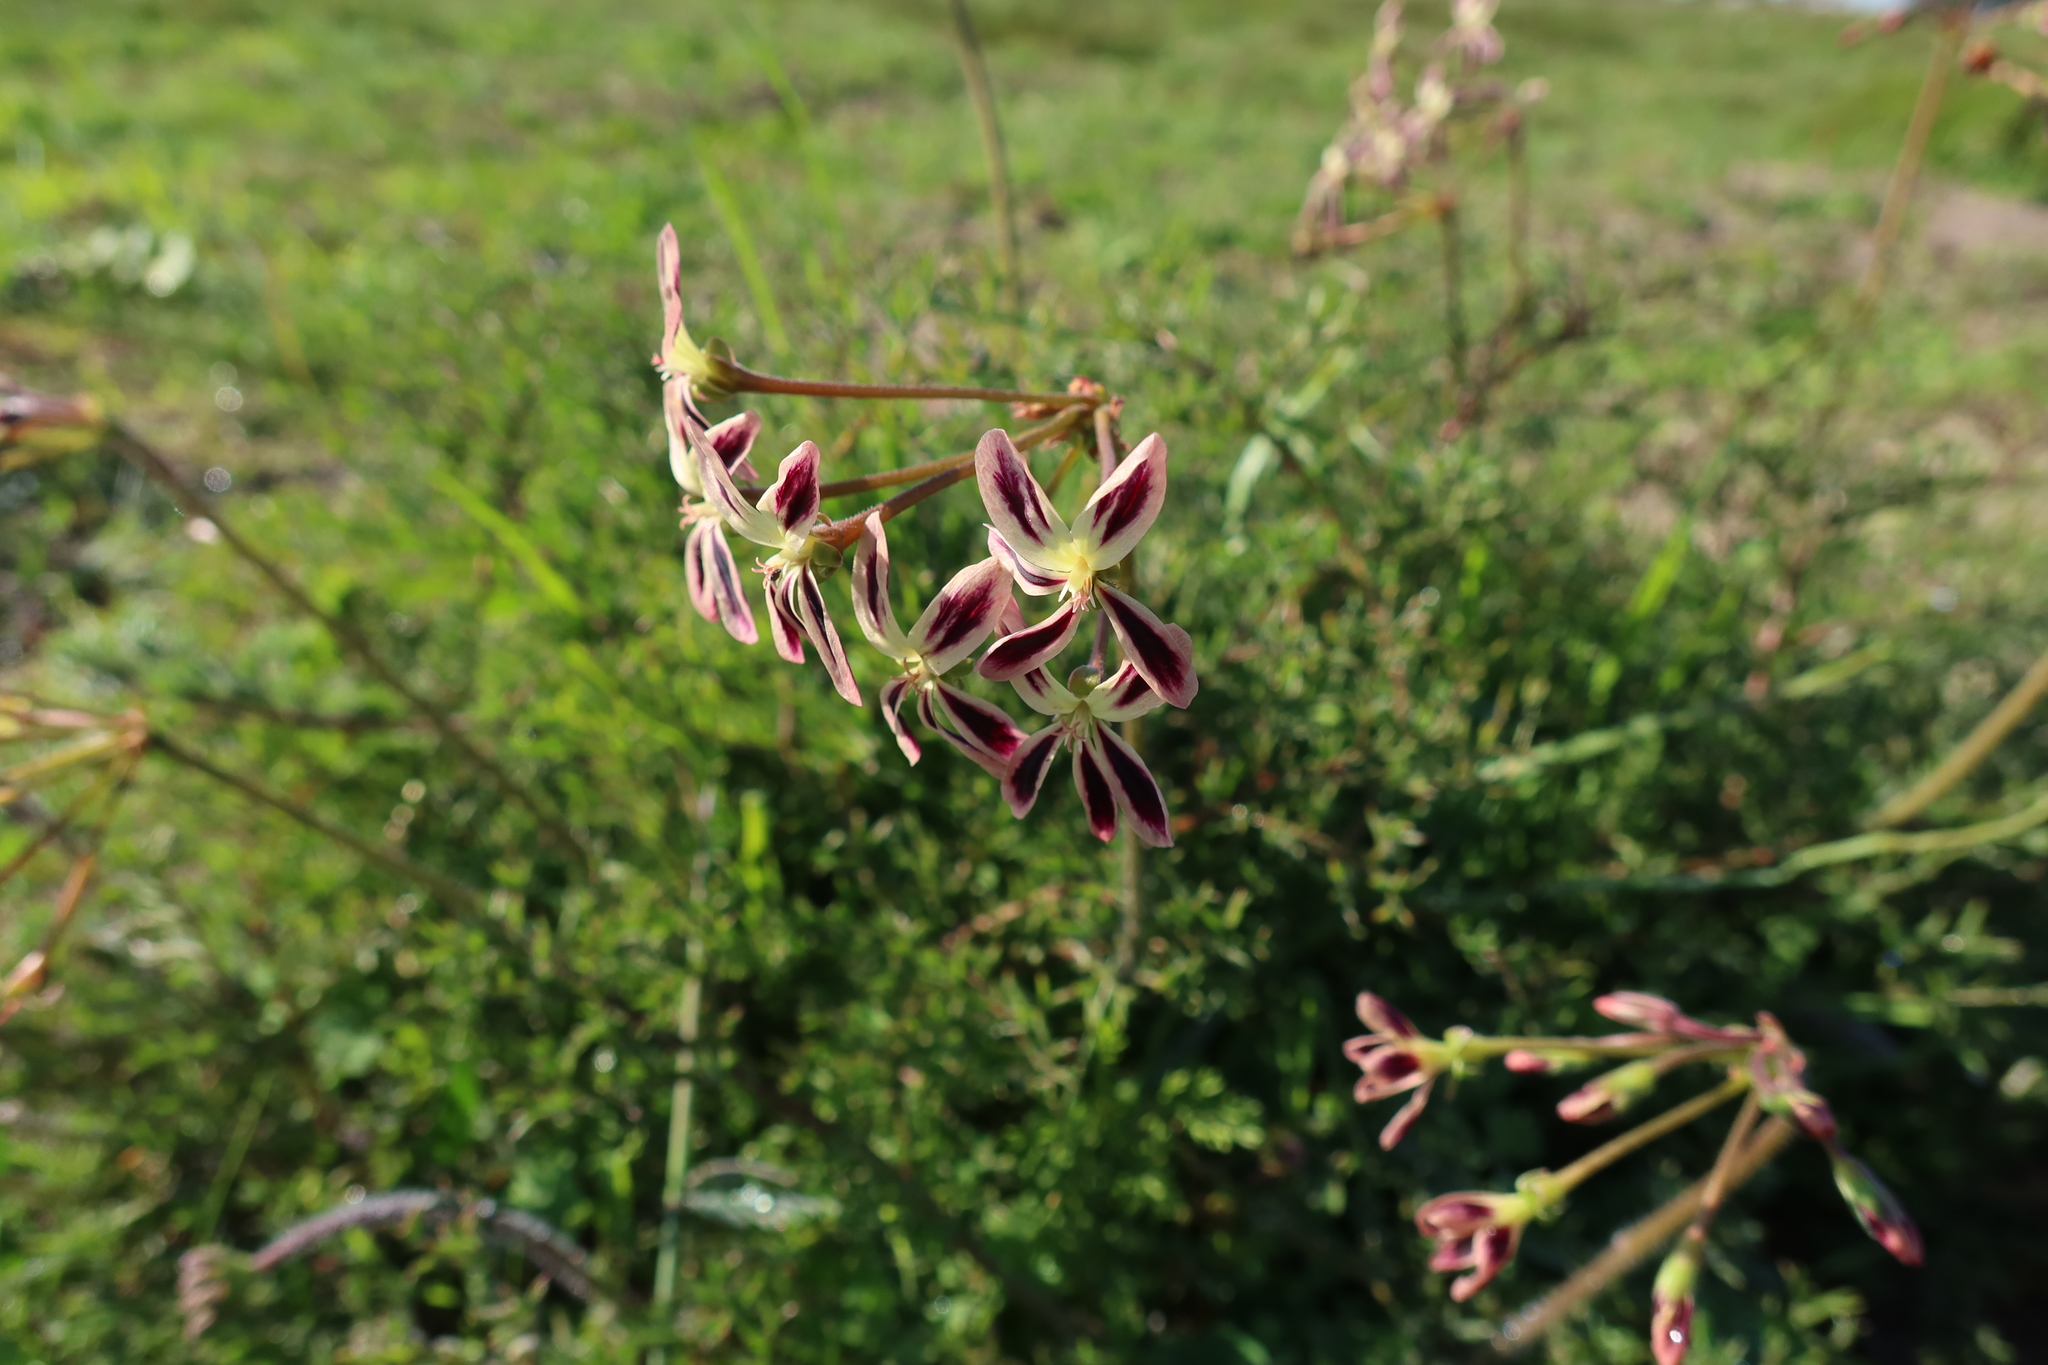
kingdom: Plantae
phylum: Tracheophyta
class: Magnoliopsida
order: Geraniales
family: Geraniaceae
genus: Pelargonium
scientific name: Pelargonium triste
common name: Night-scent pelargonium
